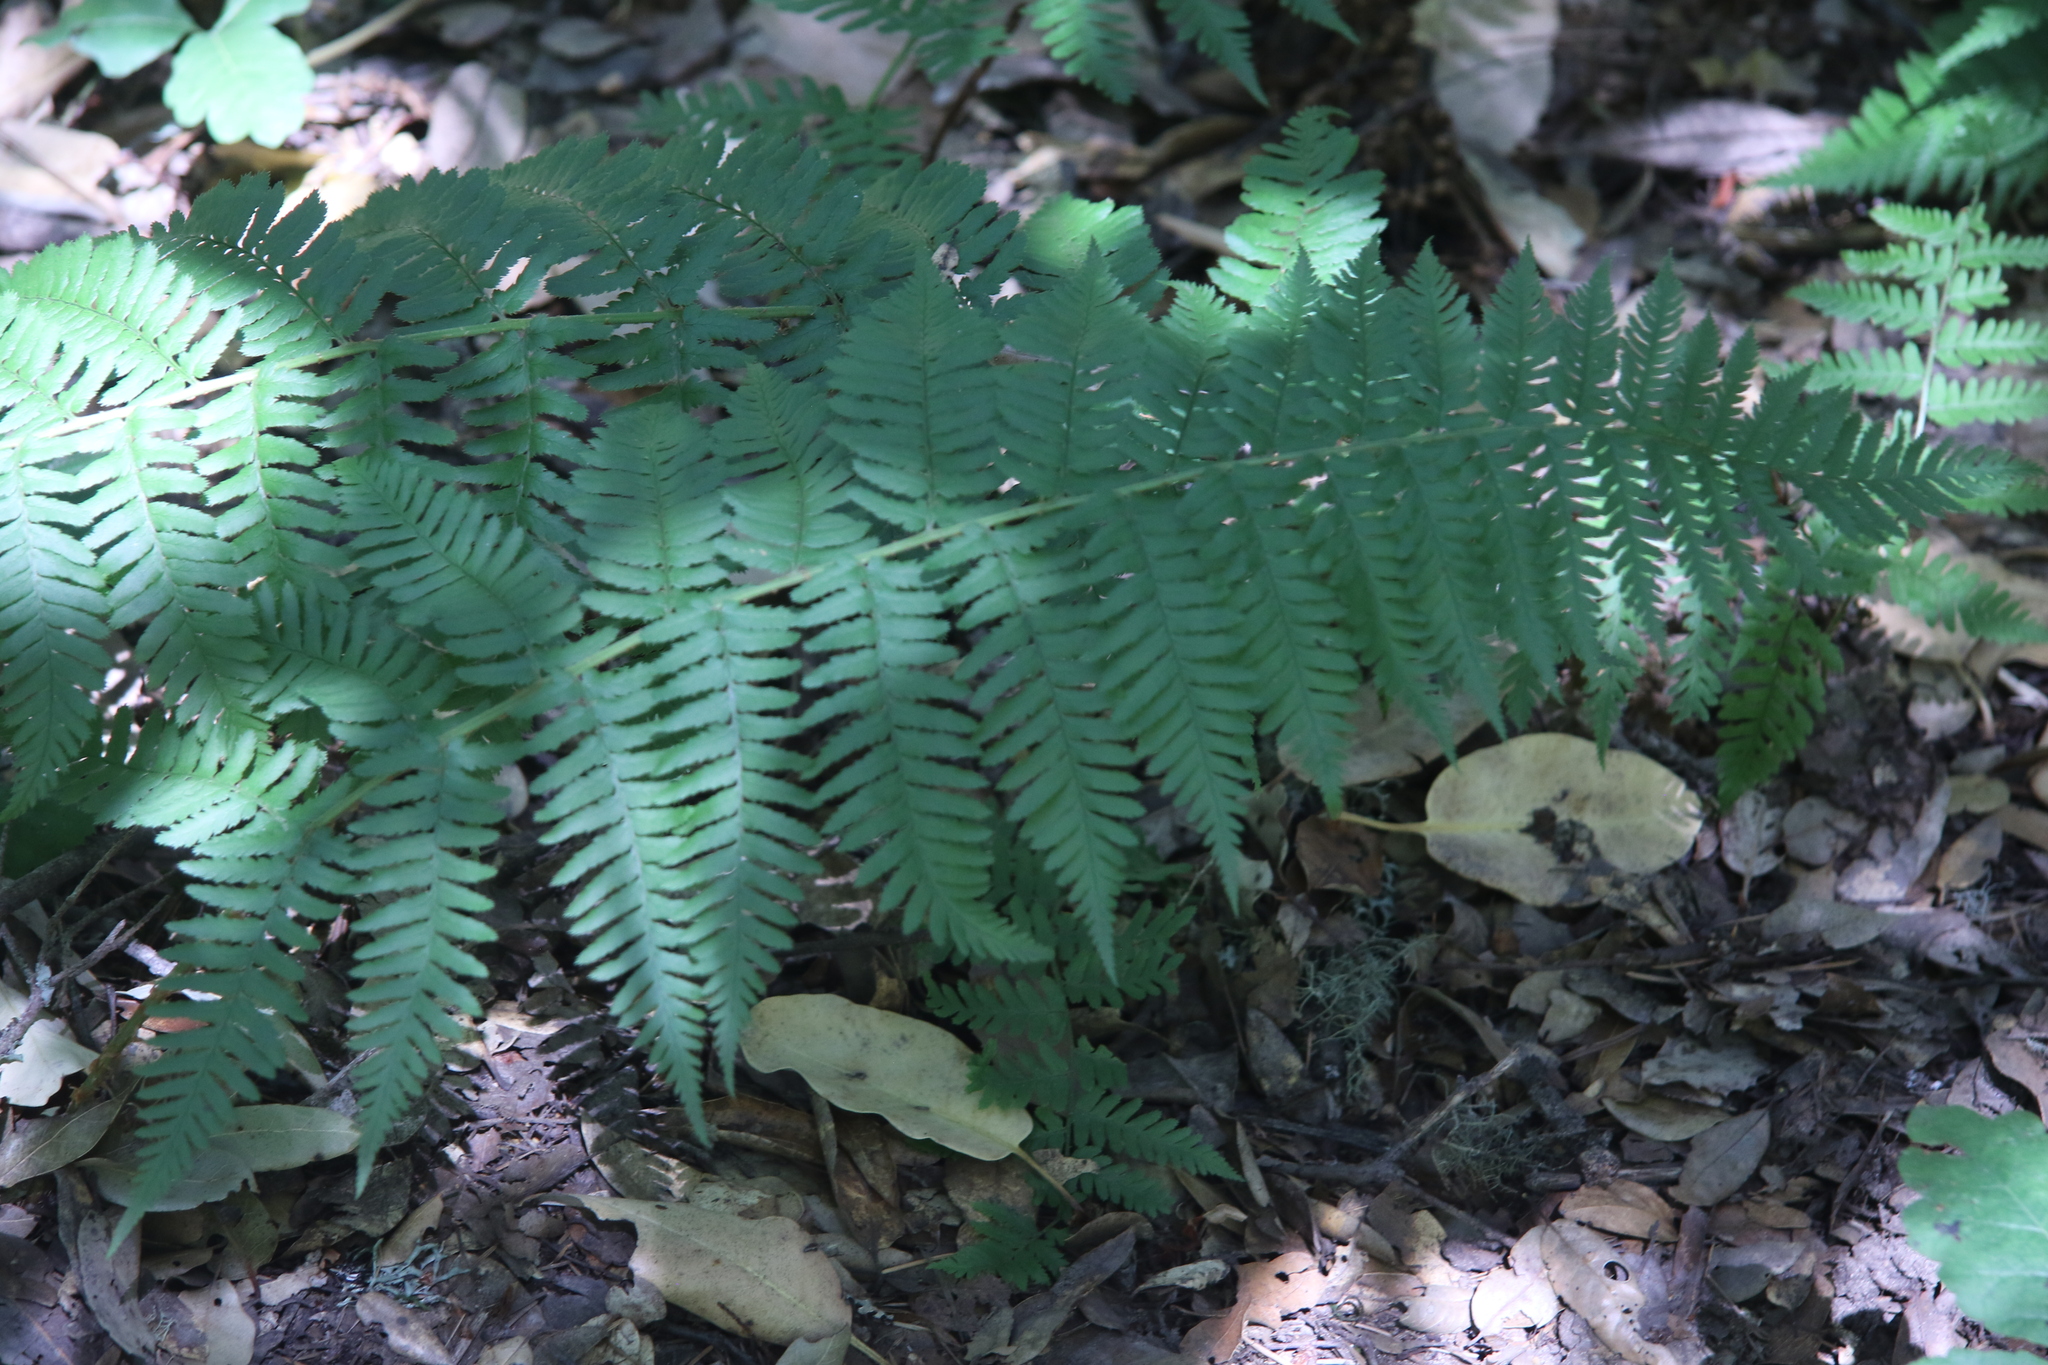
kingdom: Plantae
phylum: Tracheophyta
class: Polypodiopsida
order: Polypodiales
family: Dryopteridaceae
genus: Dryopteris
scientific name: Dryopteris arguta
